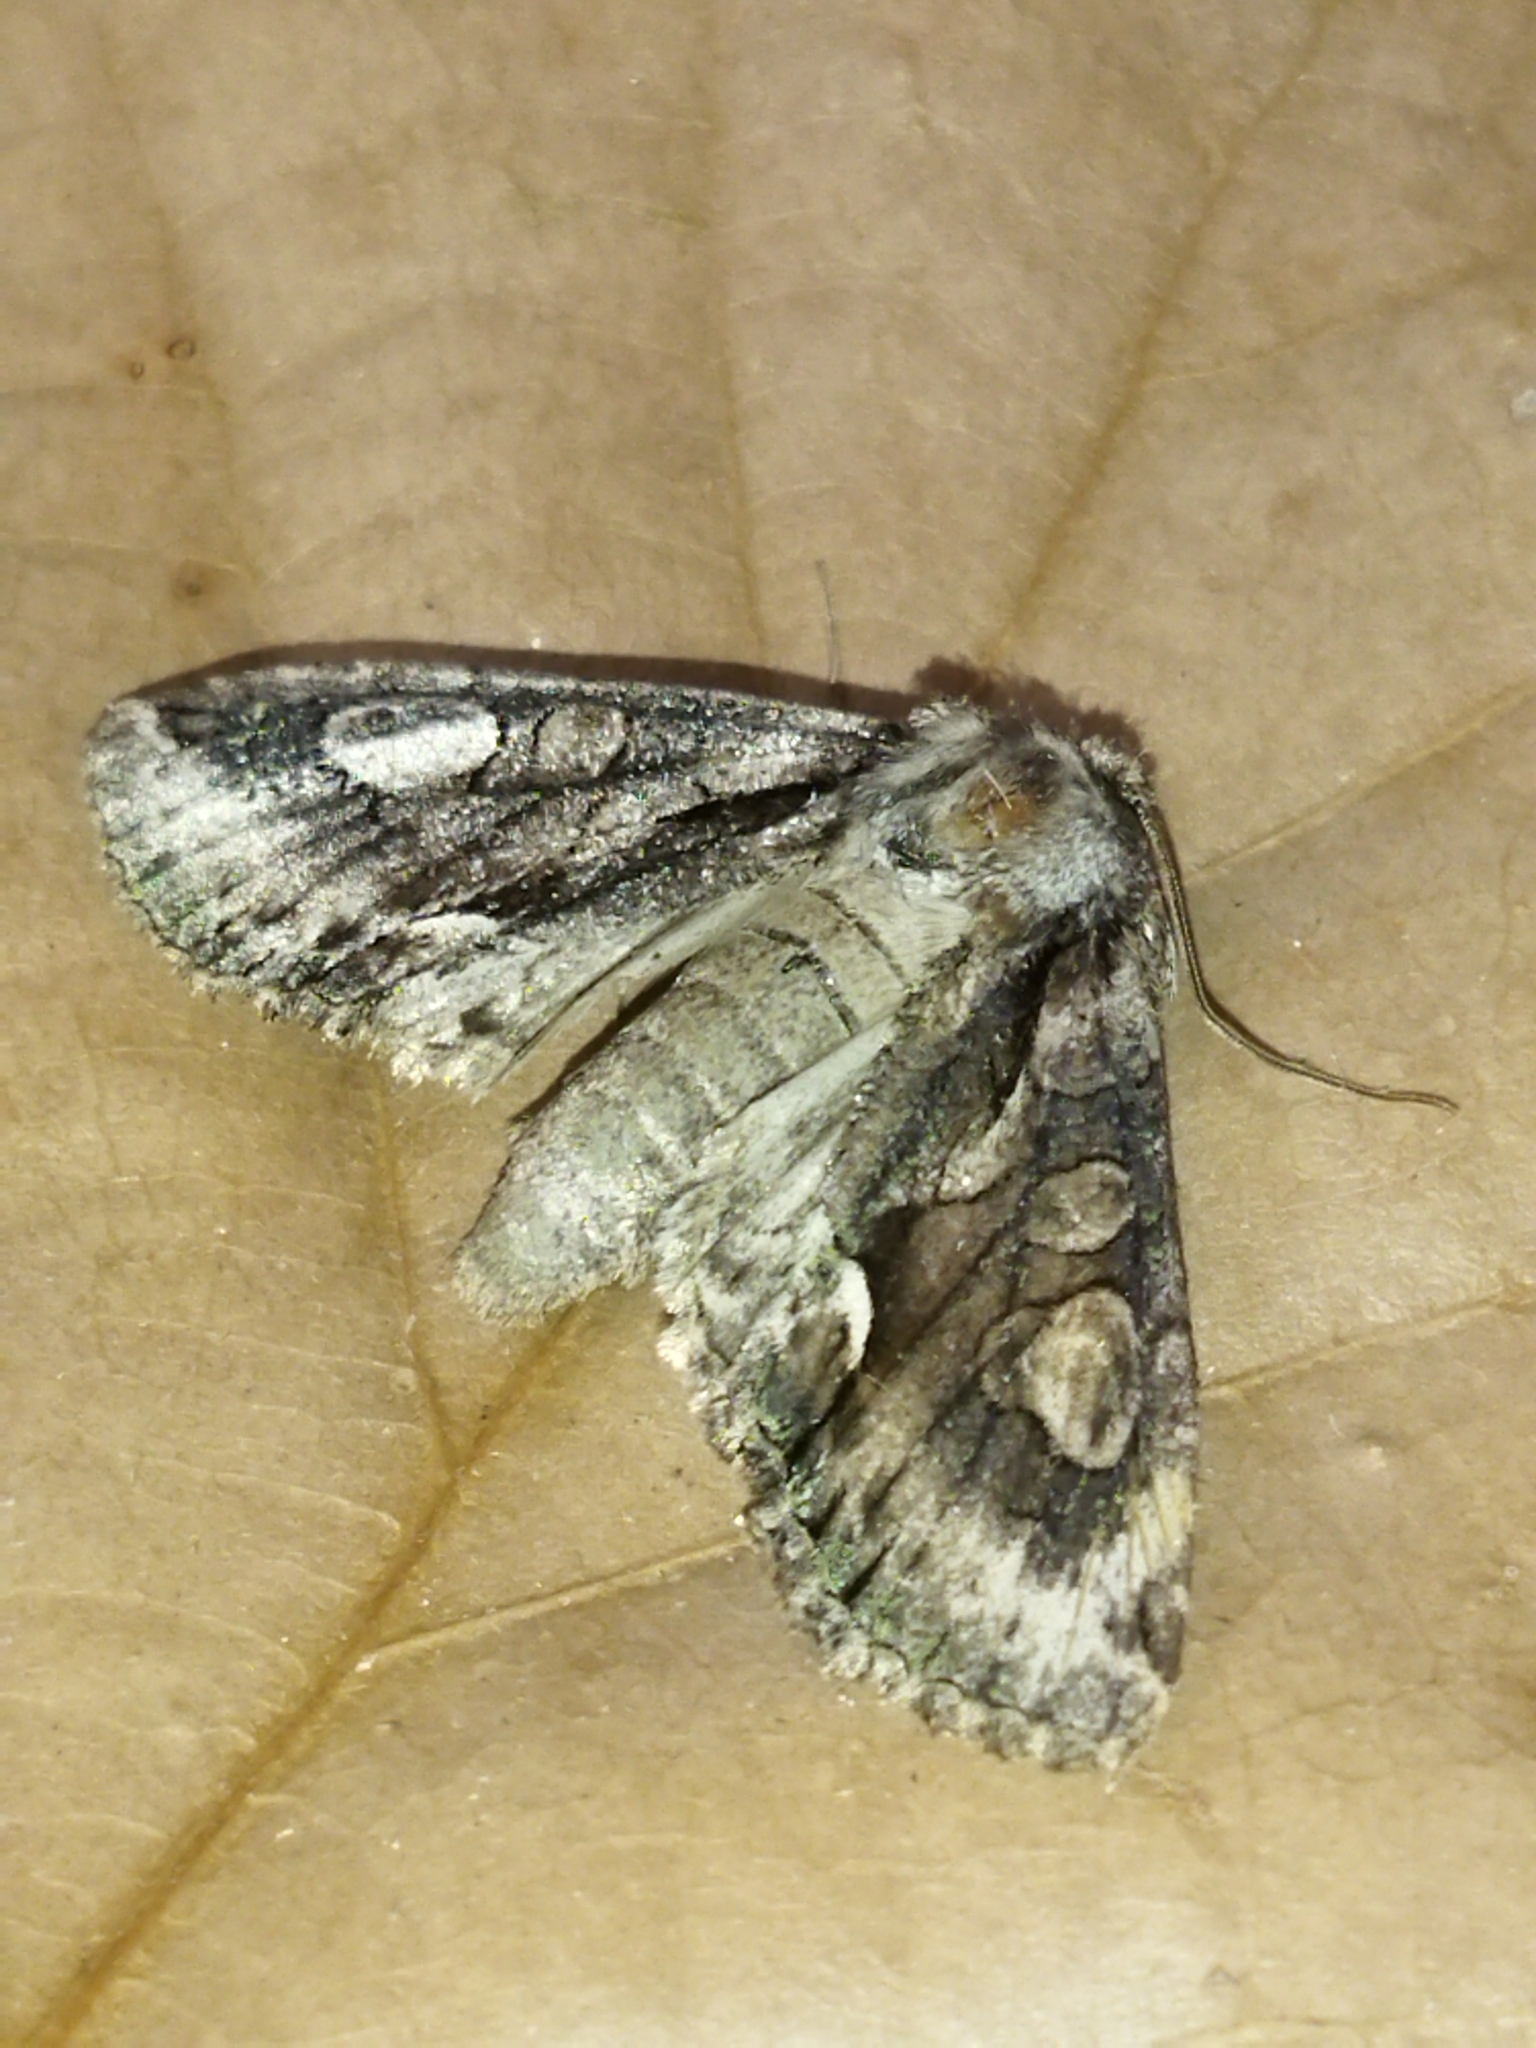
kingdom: Animalia
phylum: Arthropoda
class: Insecta
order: Lepidoptera
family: Noctuidae
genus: Allophyes
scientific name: Allophyes oxyacanthae
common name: Green-brindled crescent
